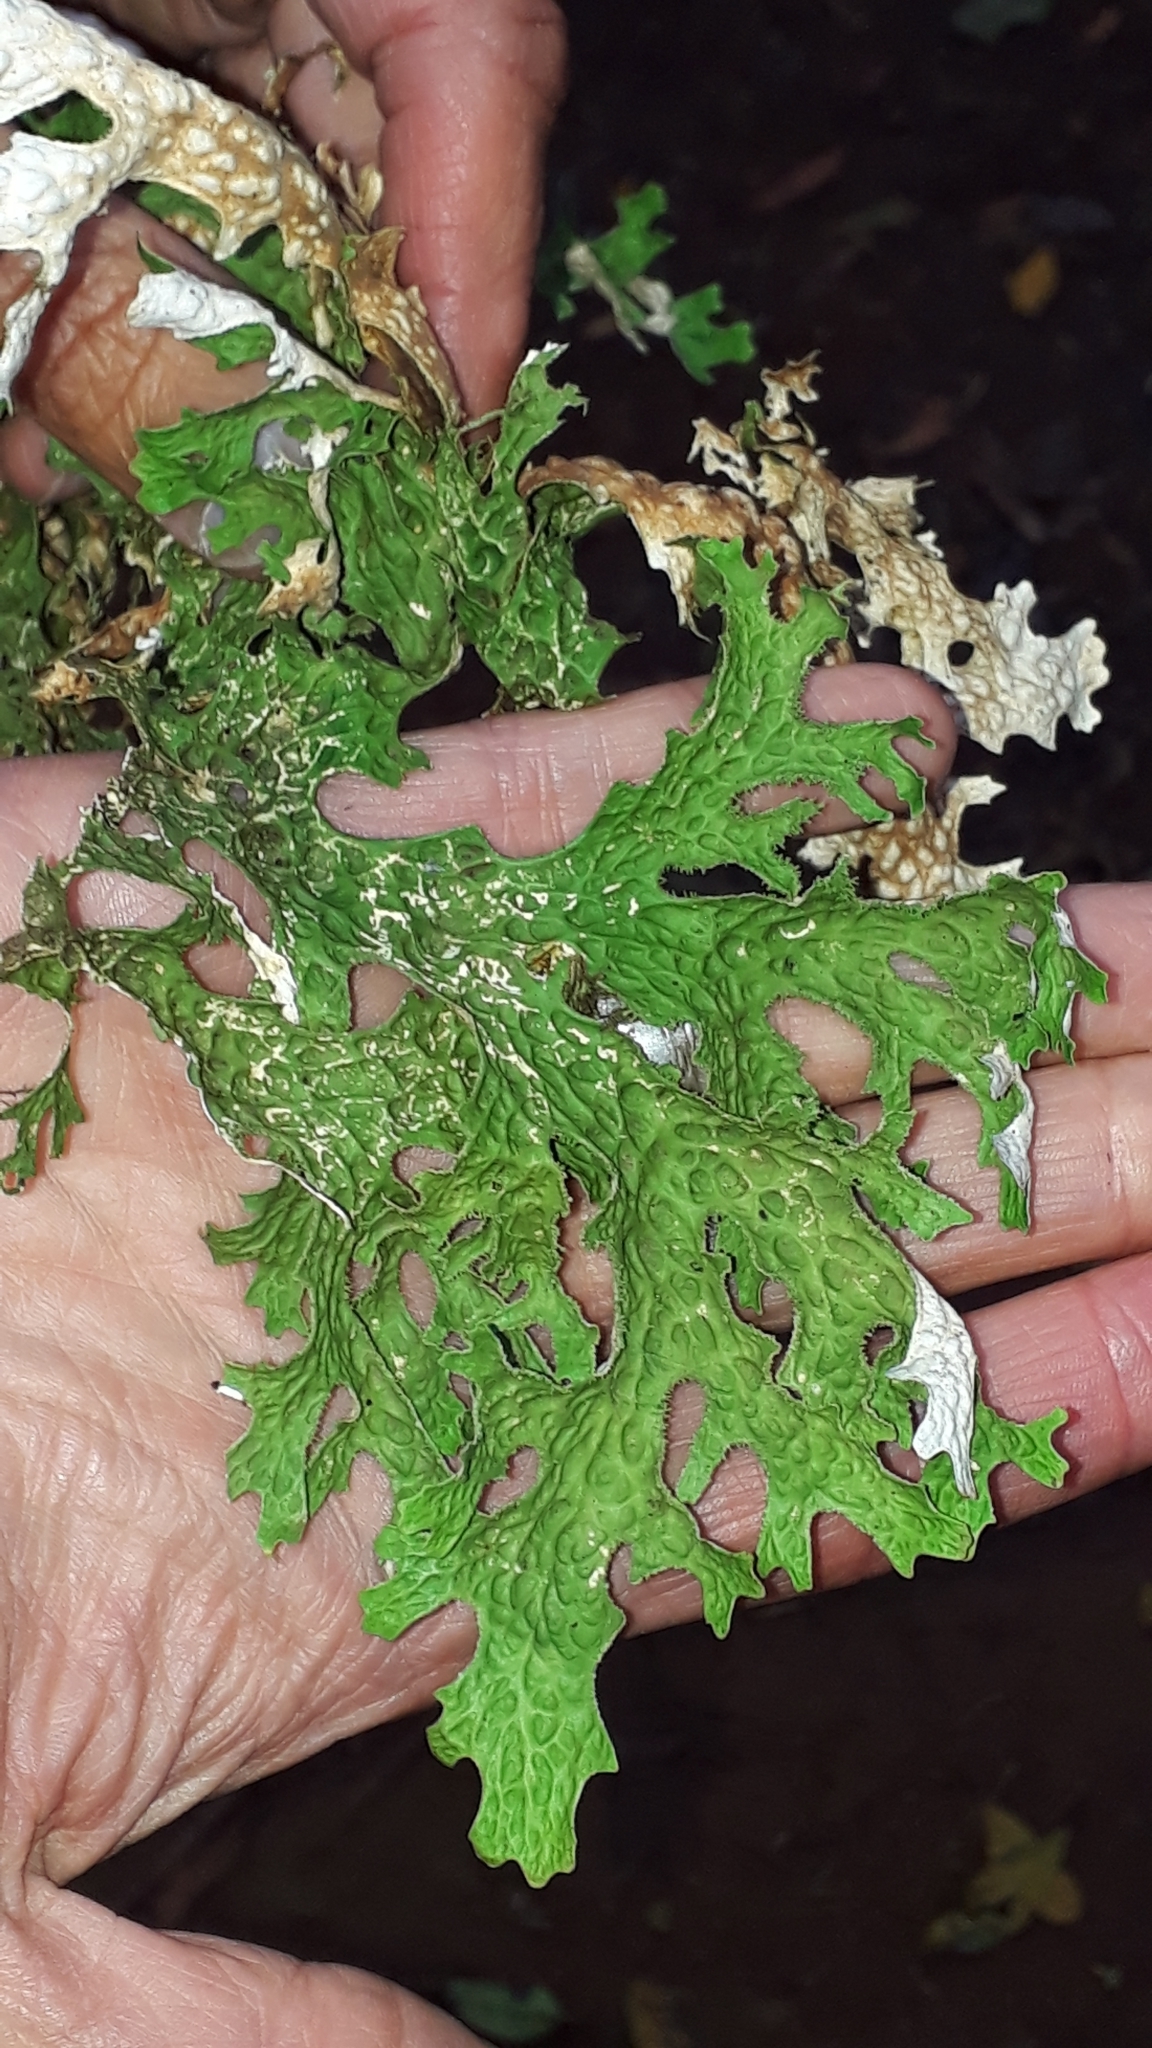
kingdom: Fungi
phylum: Ascomycota
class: Lecanoromycetes
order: Peltigerales
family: Lobariaceae
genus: Lobaria
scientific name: Lobaria pulmonaria
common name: Lungwort
